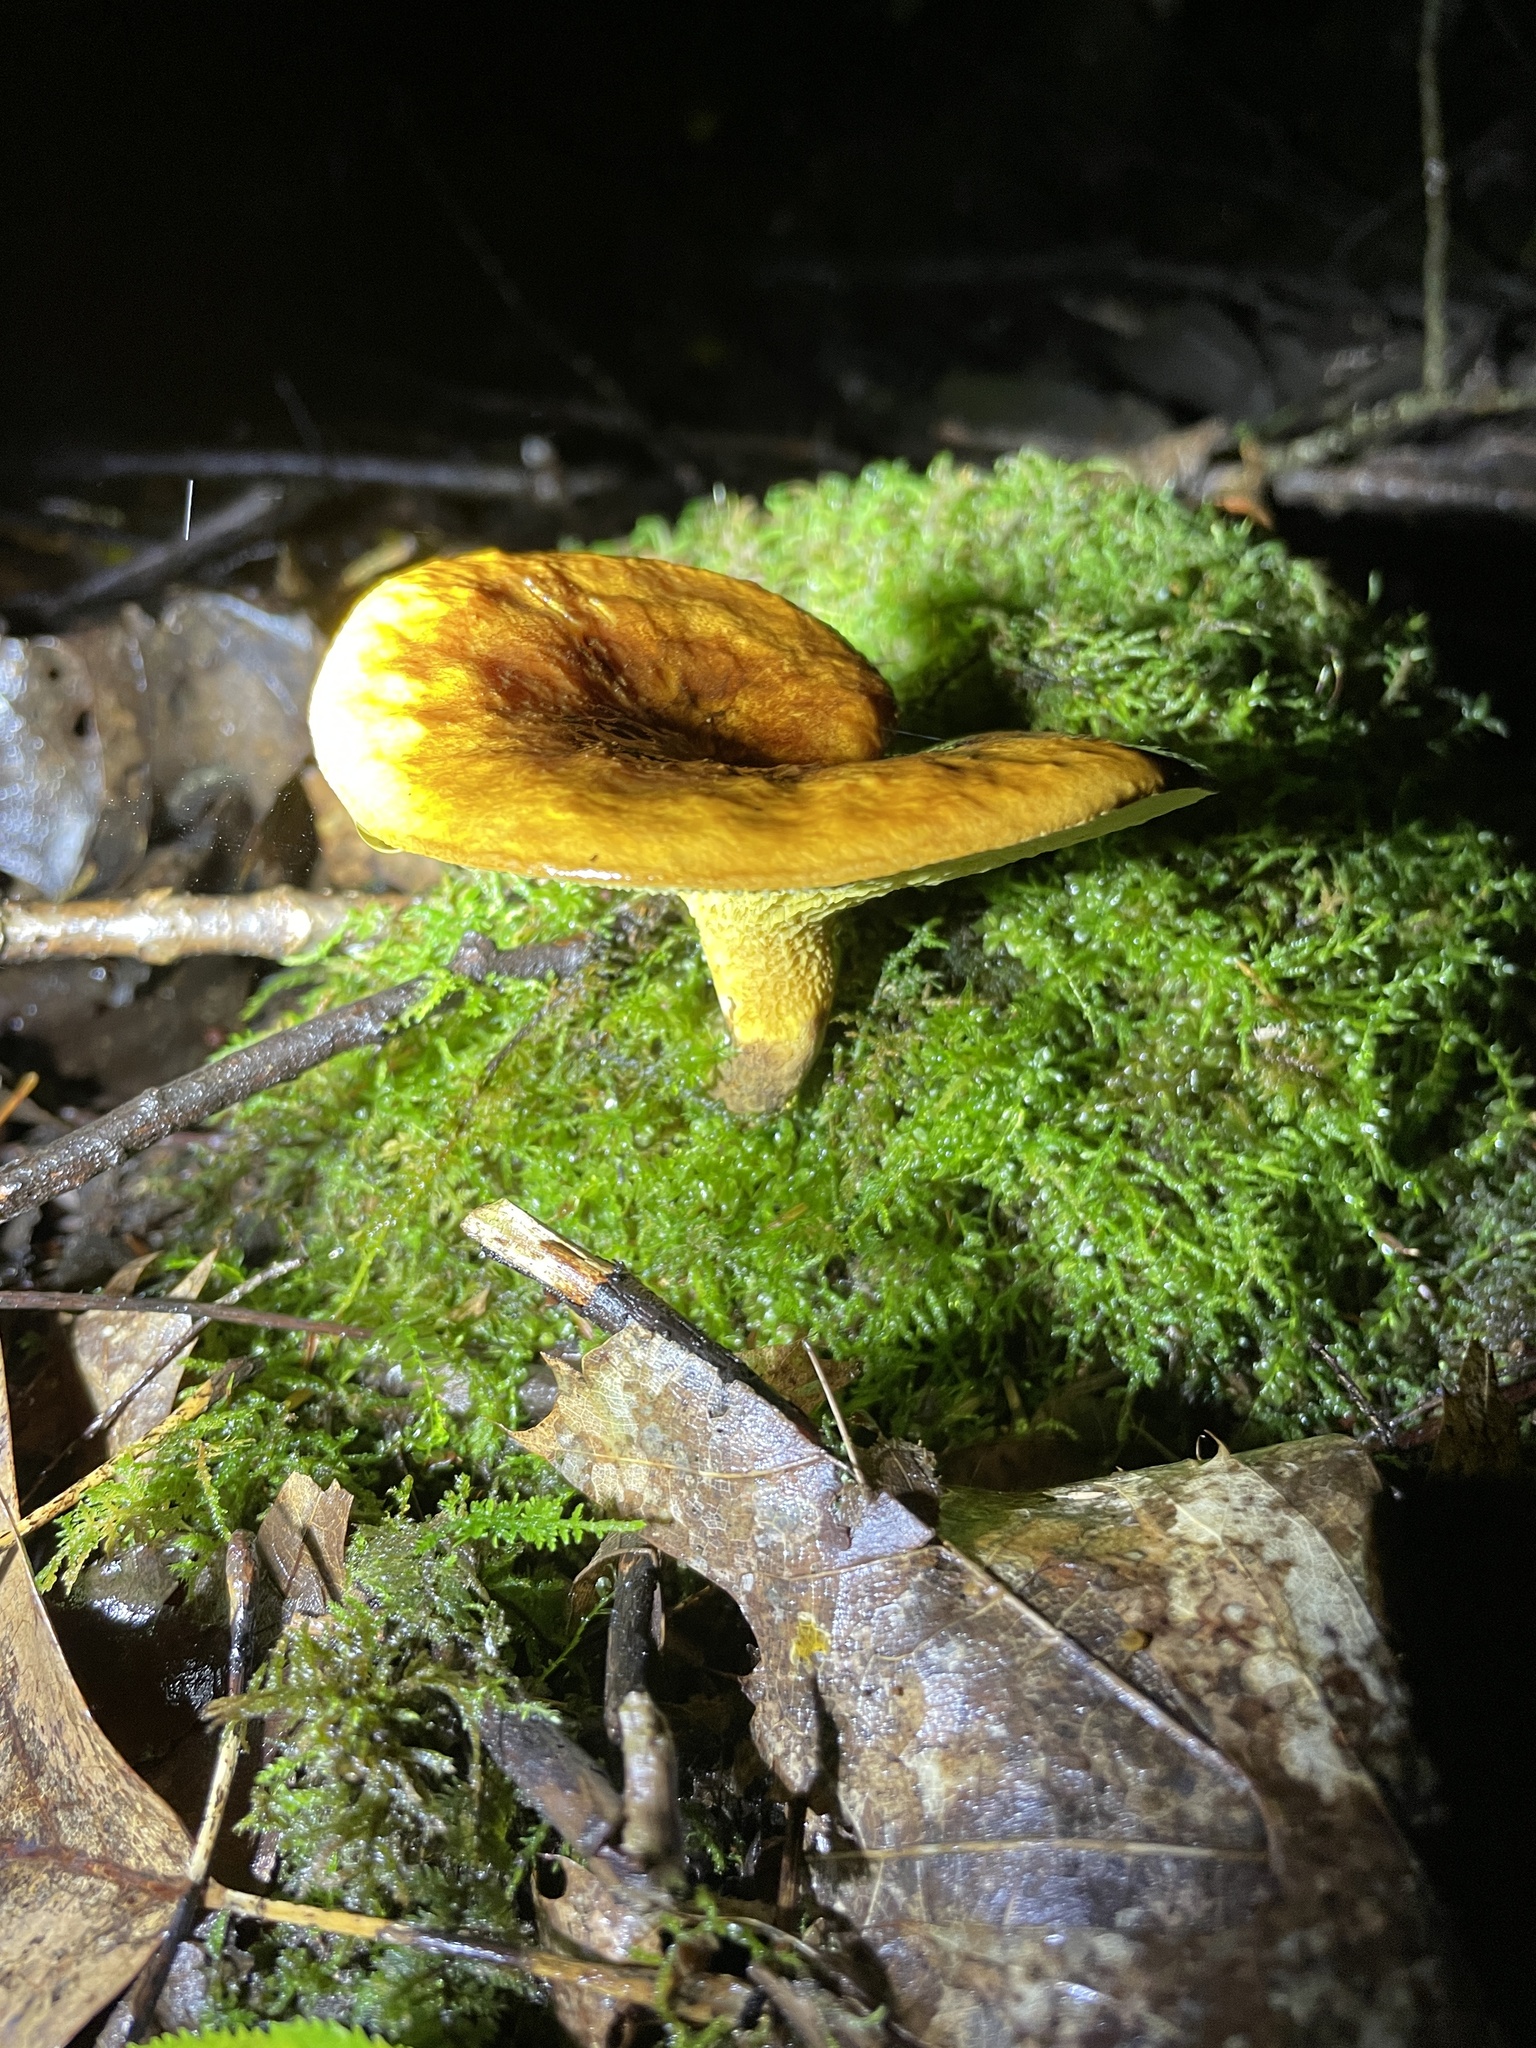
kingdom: Fungi
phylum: Basidiomycota
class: Agaricomycetes
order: Boletales
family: Boletinellaceae
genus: Boletinellus
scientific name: Boletinellus merulioides
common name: Ash tree bolete
